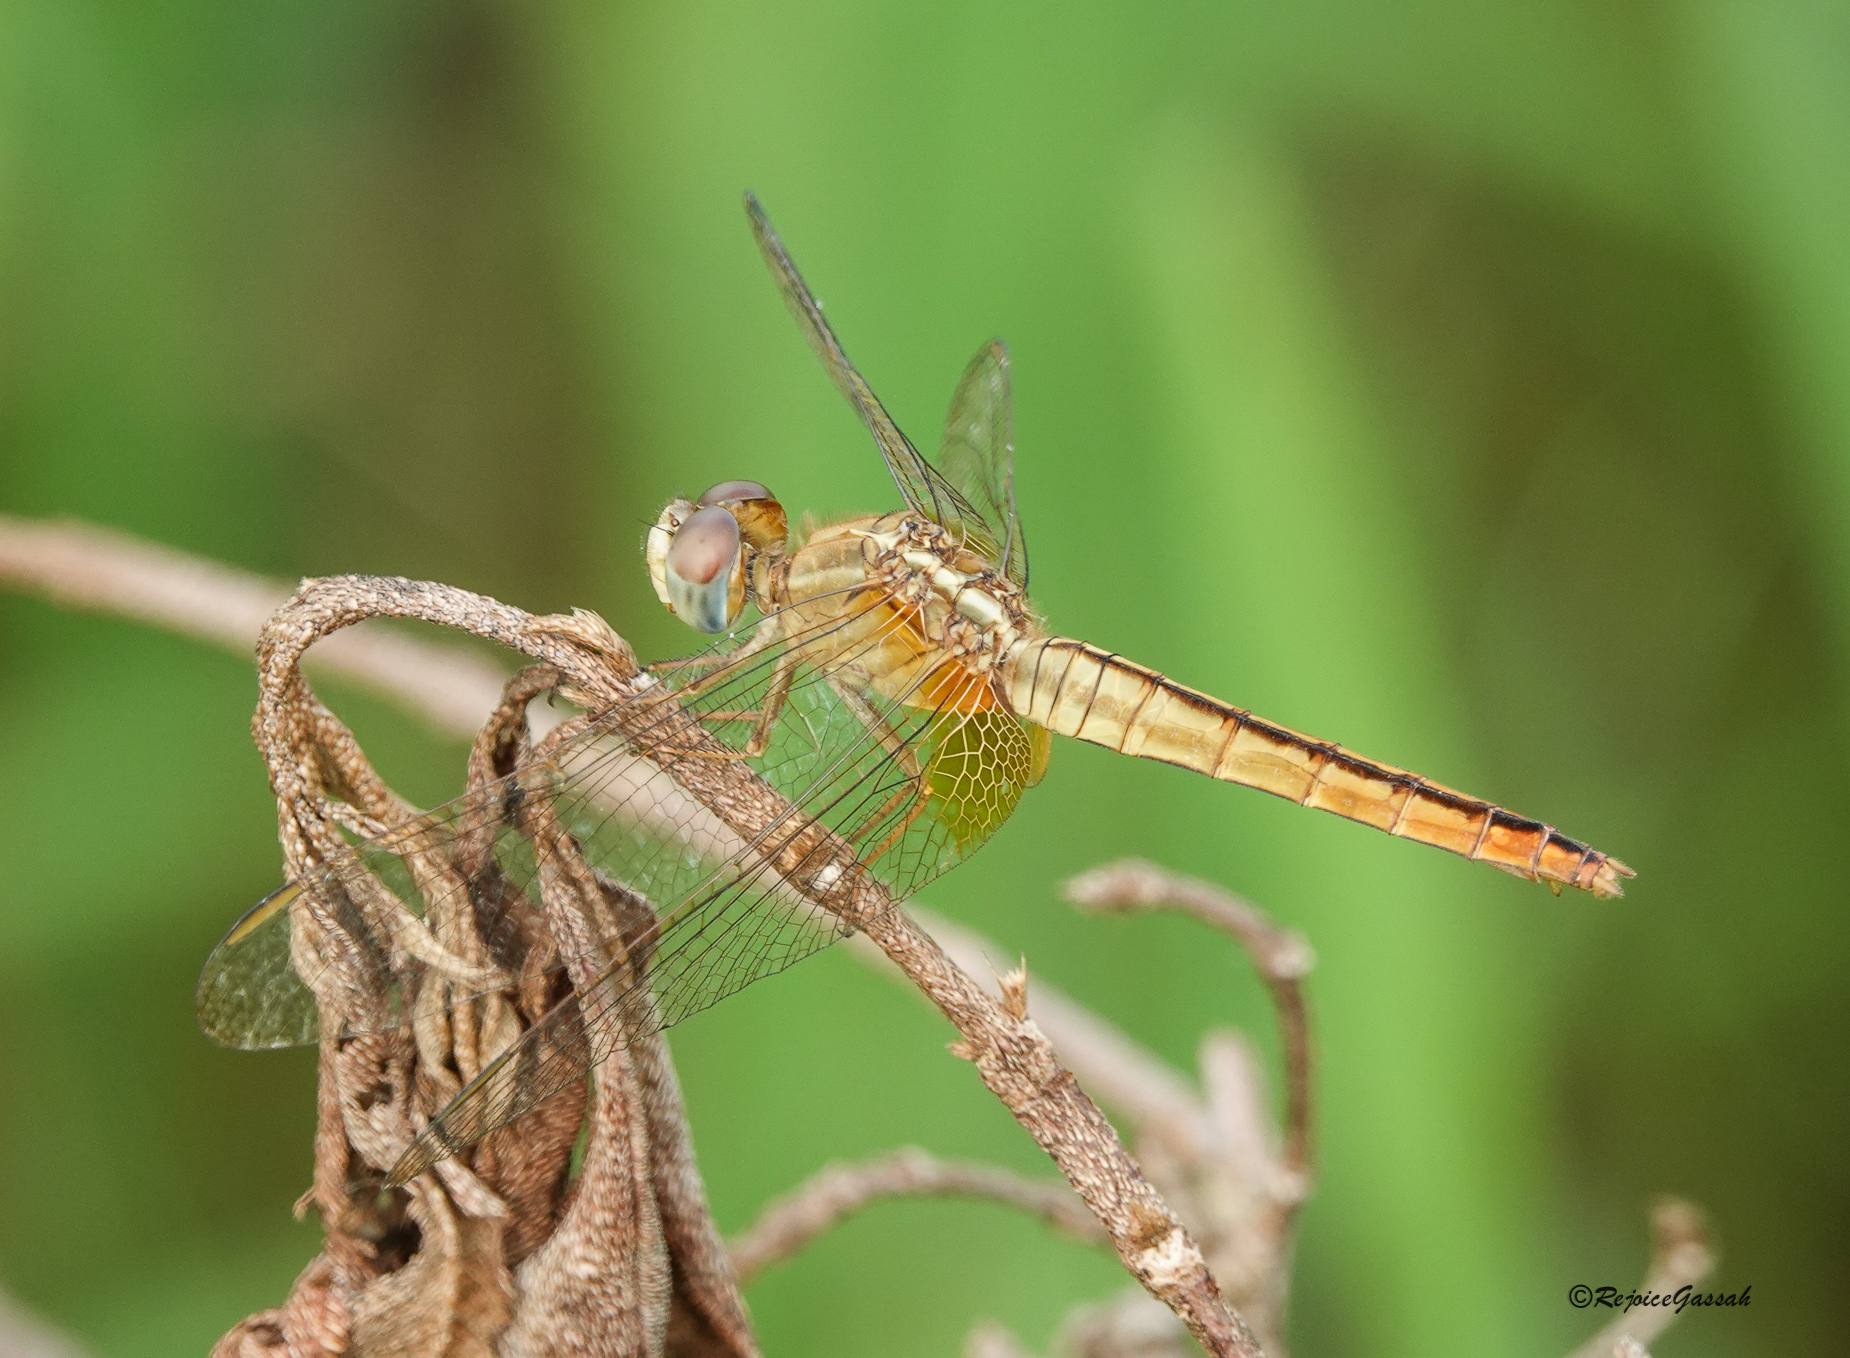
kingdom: Animalia
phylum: Arthropoda
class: Insecta
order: Odonata
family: Libellulidae
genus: Crocothemis
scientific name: Crocothemis servilia
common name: Scarlet skimmer
